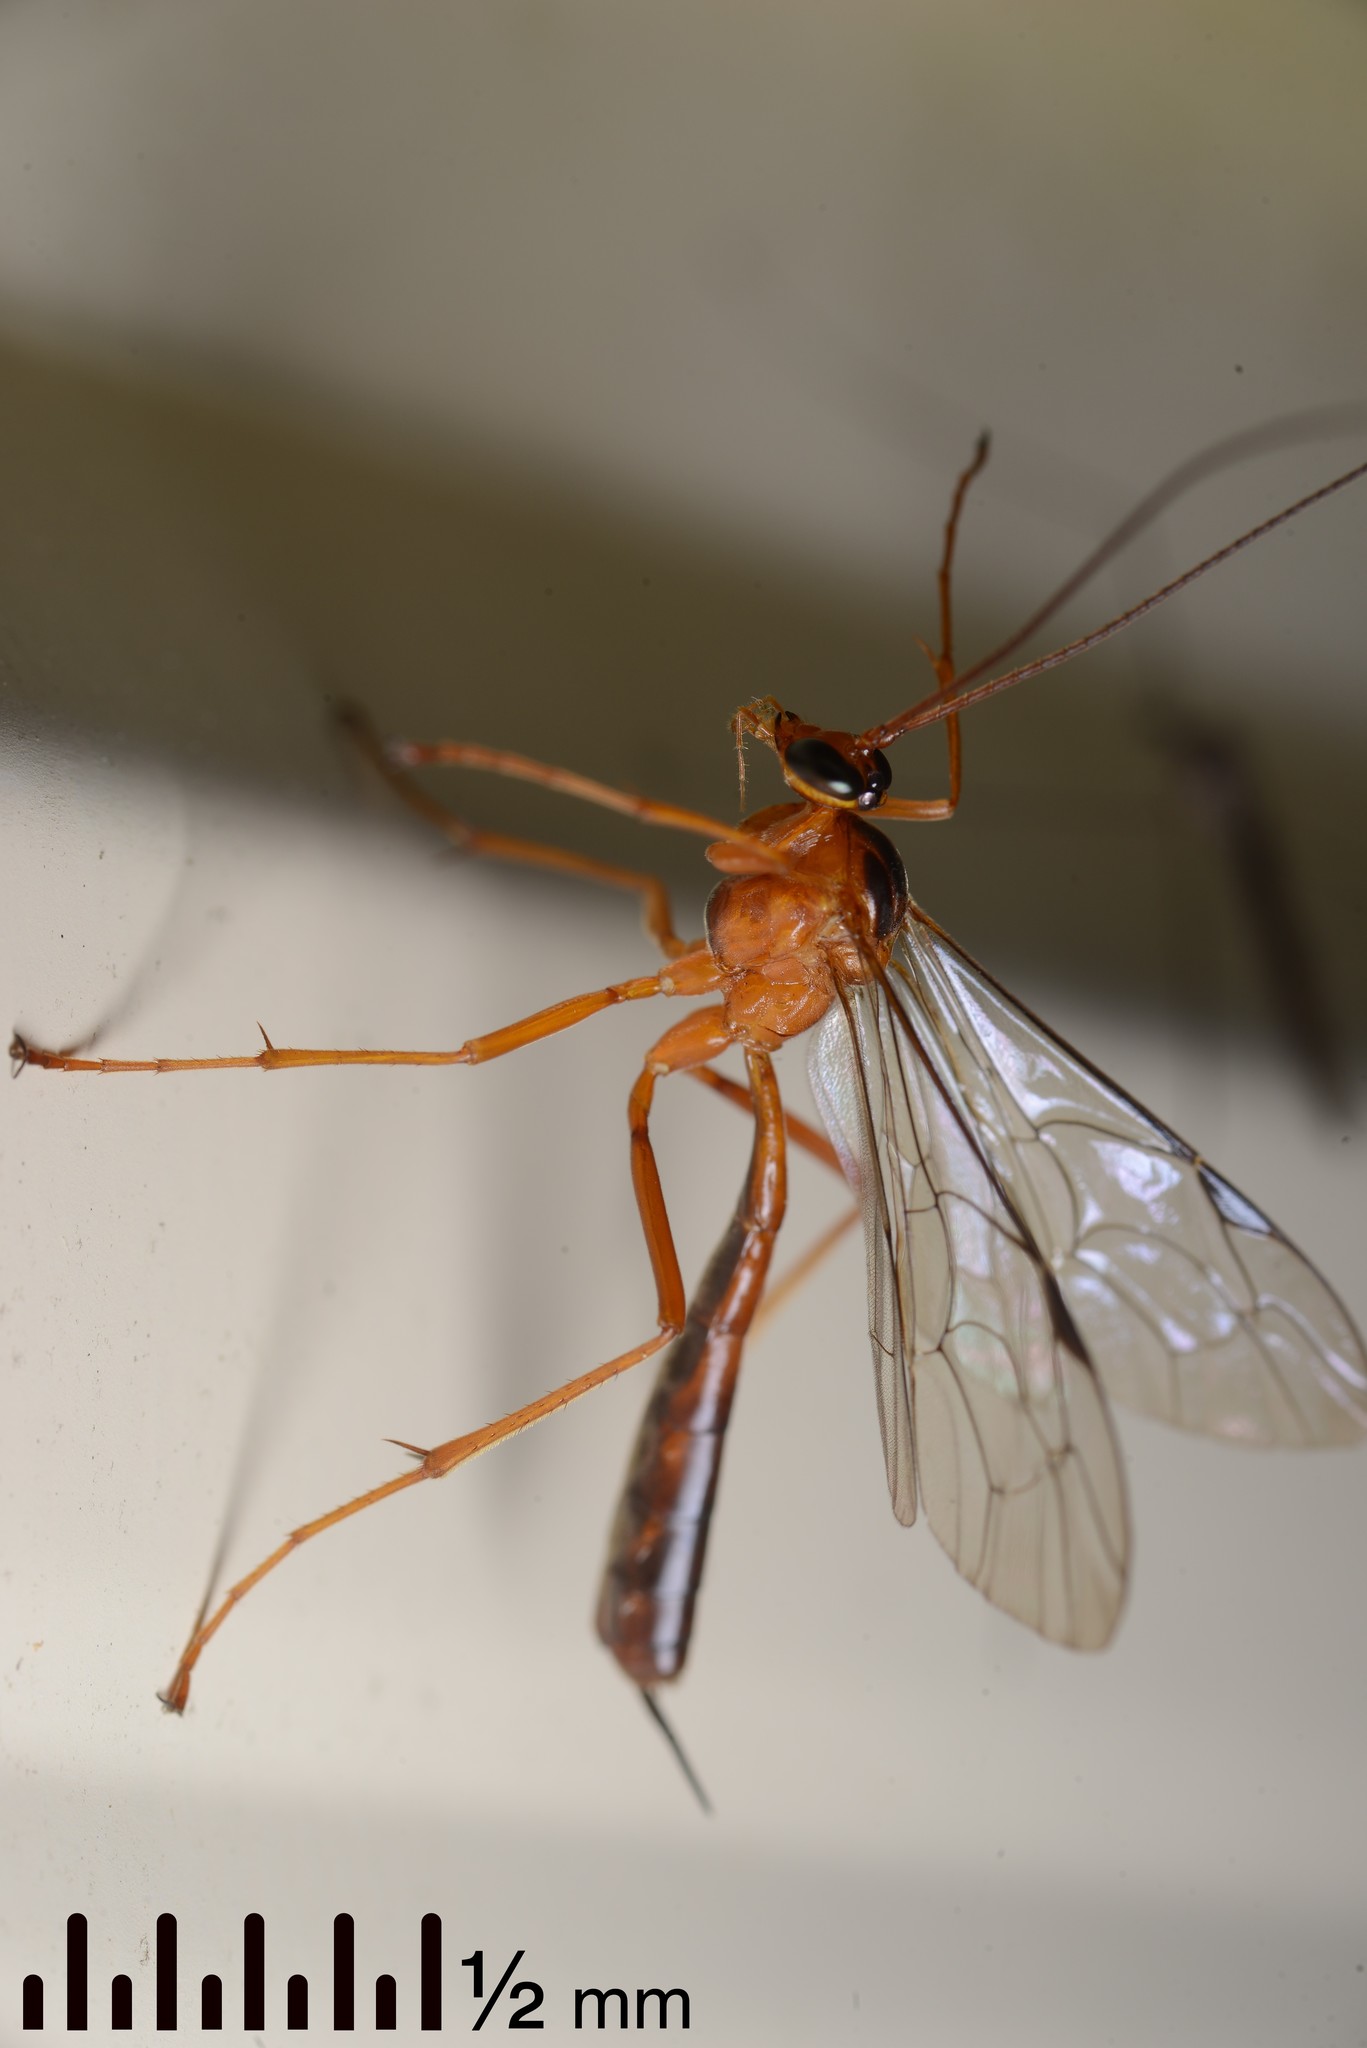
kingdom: Animalia
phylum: Arthropoda
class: Insecta
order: Hymenoptera
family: Ichneumonidae
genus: Netelia
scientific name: Netelia ephippiata
